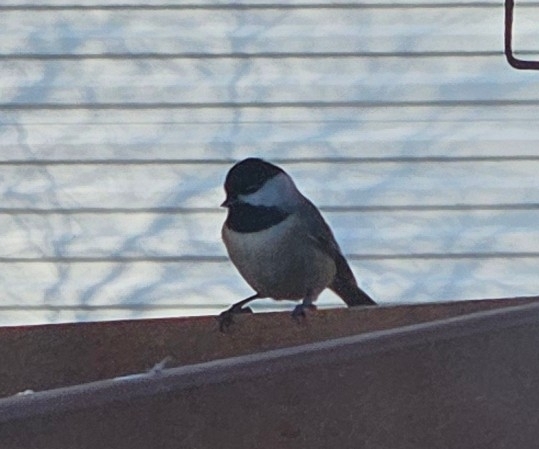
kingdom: Animalia
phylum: Chordata
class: Aves
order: Passeriformes
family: Paridae
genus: Poecile
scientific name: Poecile carolinensis
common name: Carolina chickadee
